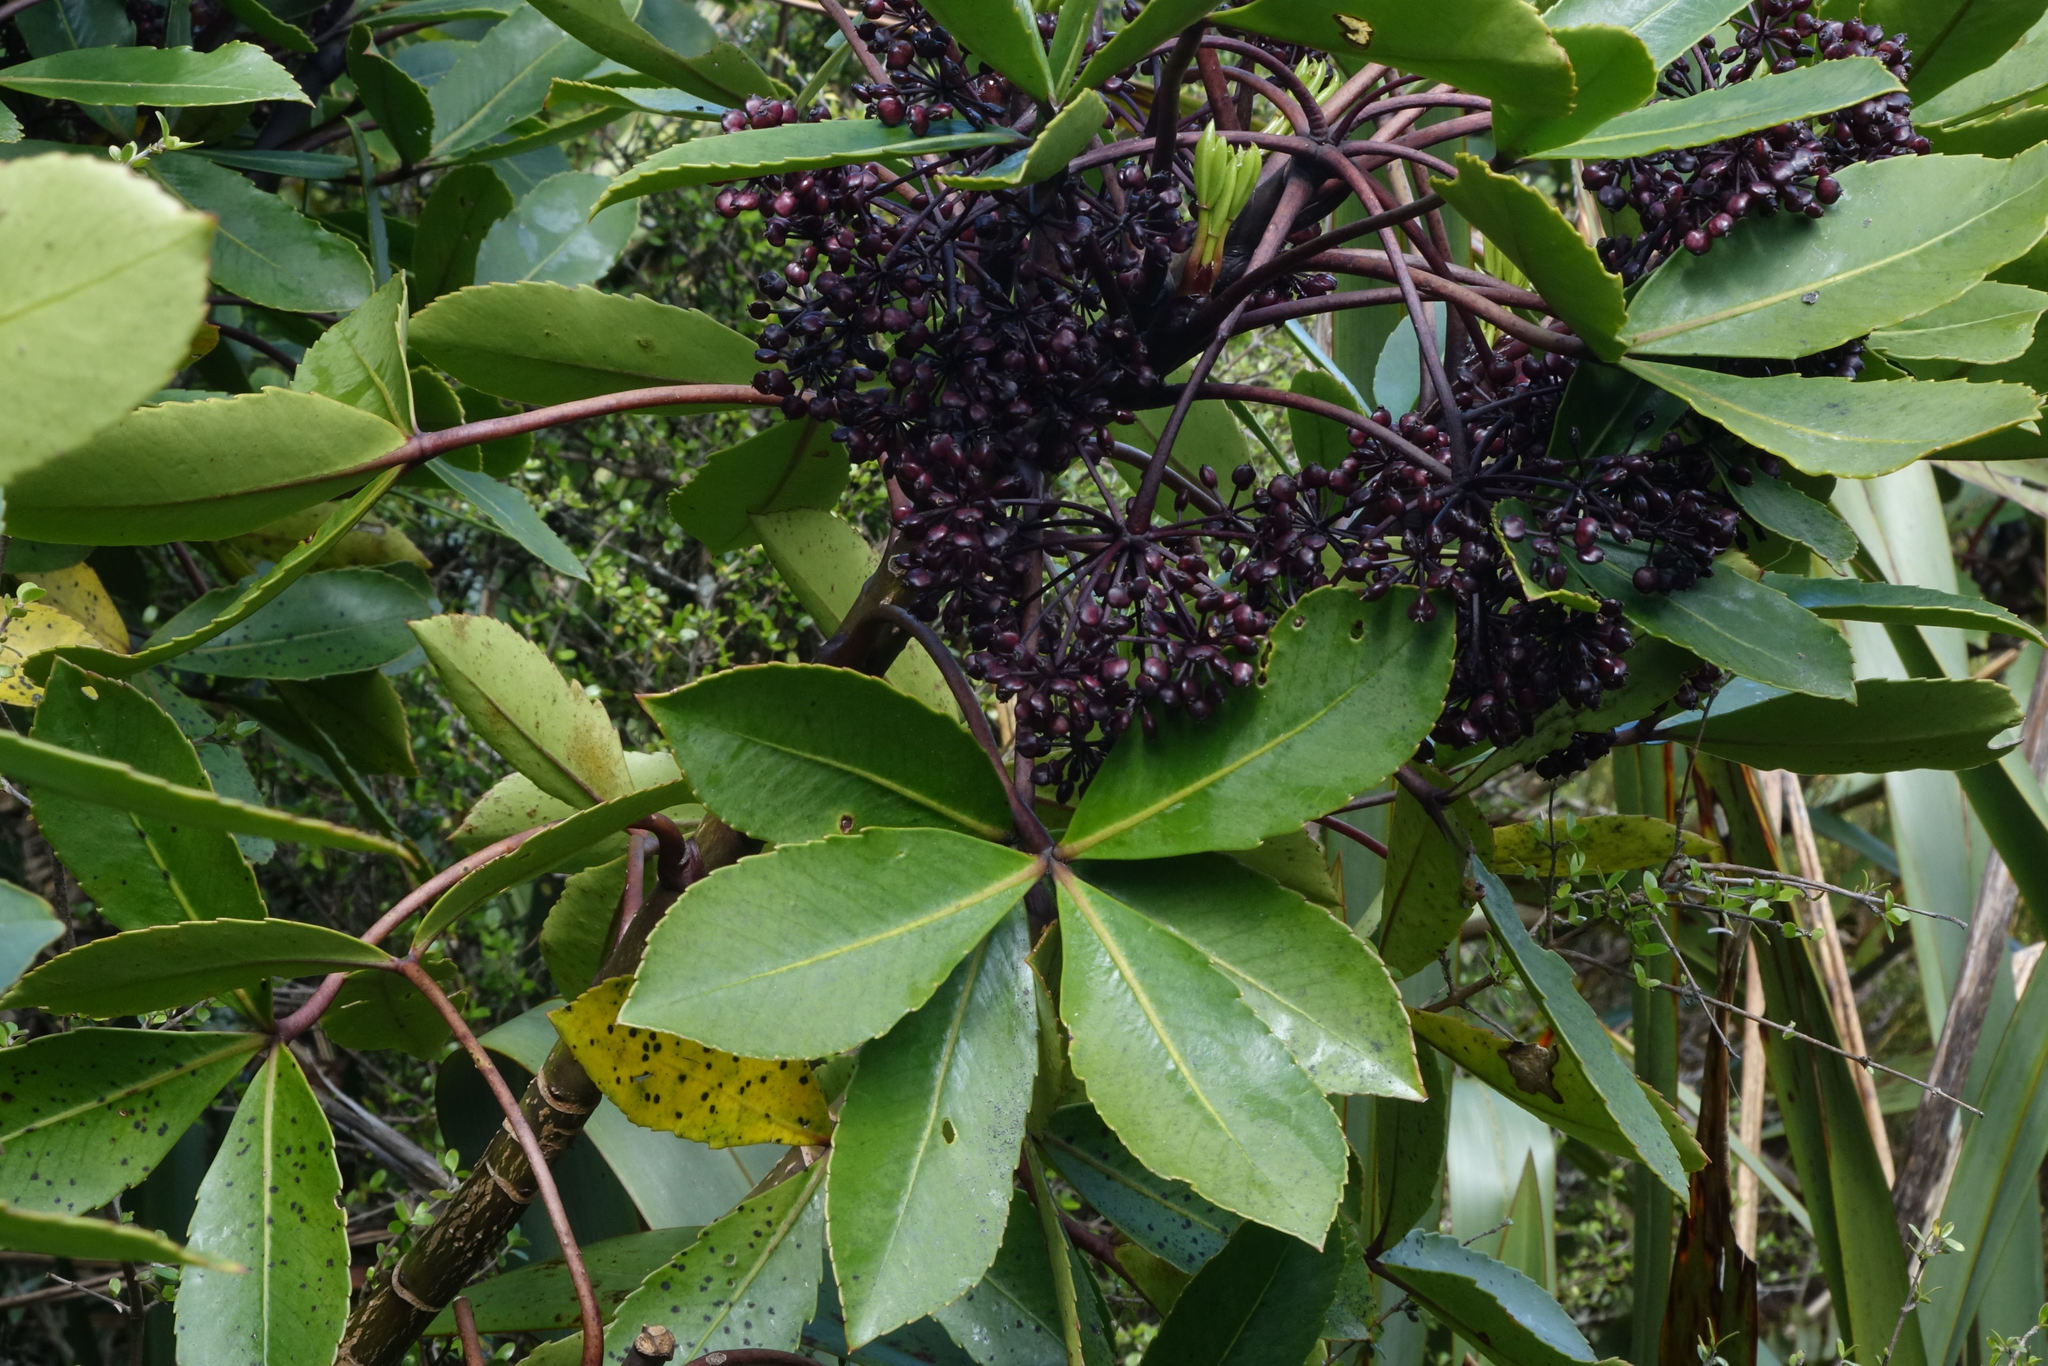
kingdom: Plantae
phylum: Tracheophyta
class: Magnoliopsida
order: Apiales
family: Araliaceae
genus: Neopanax
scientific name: Neopanax colensoi
